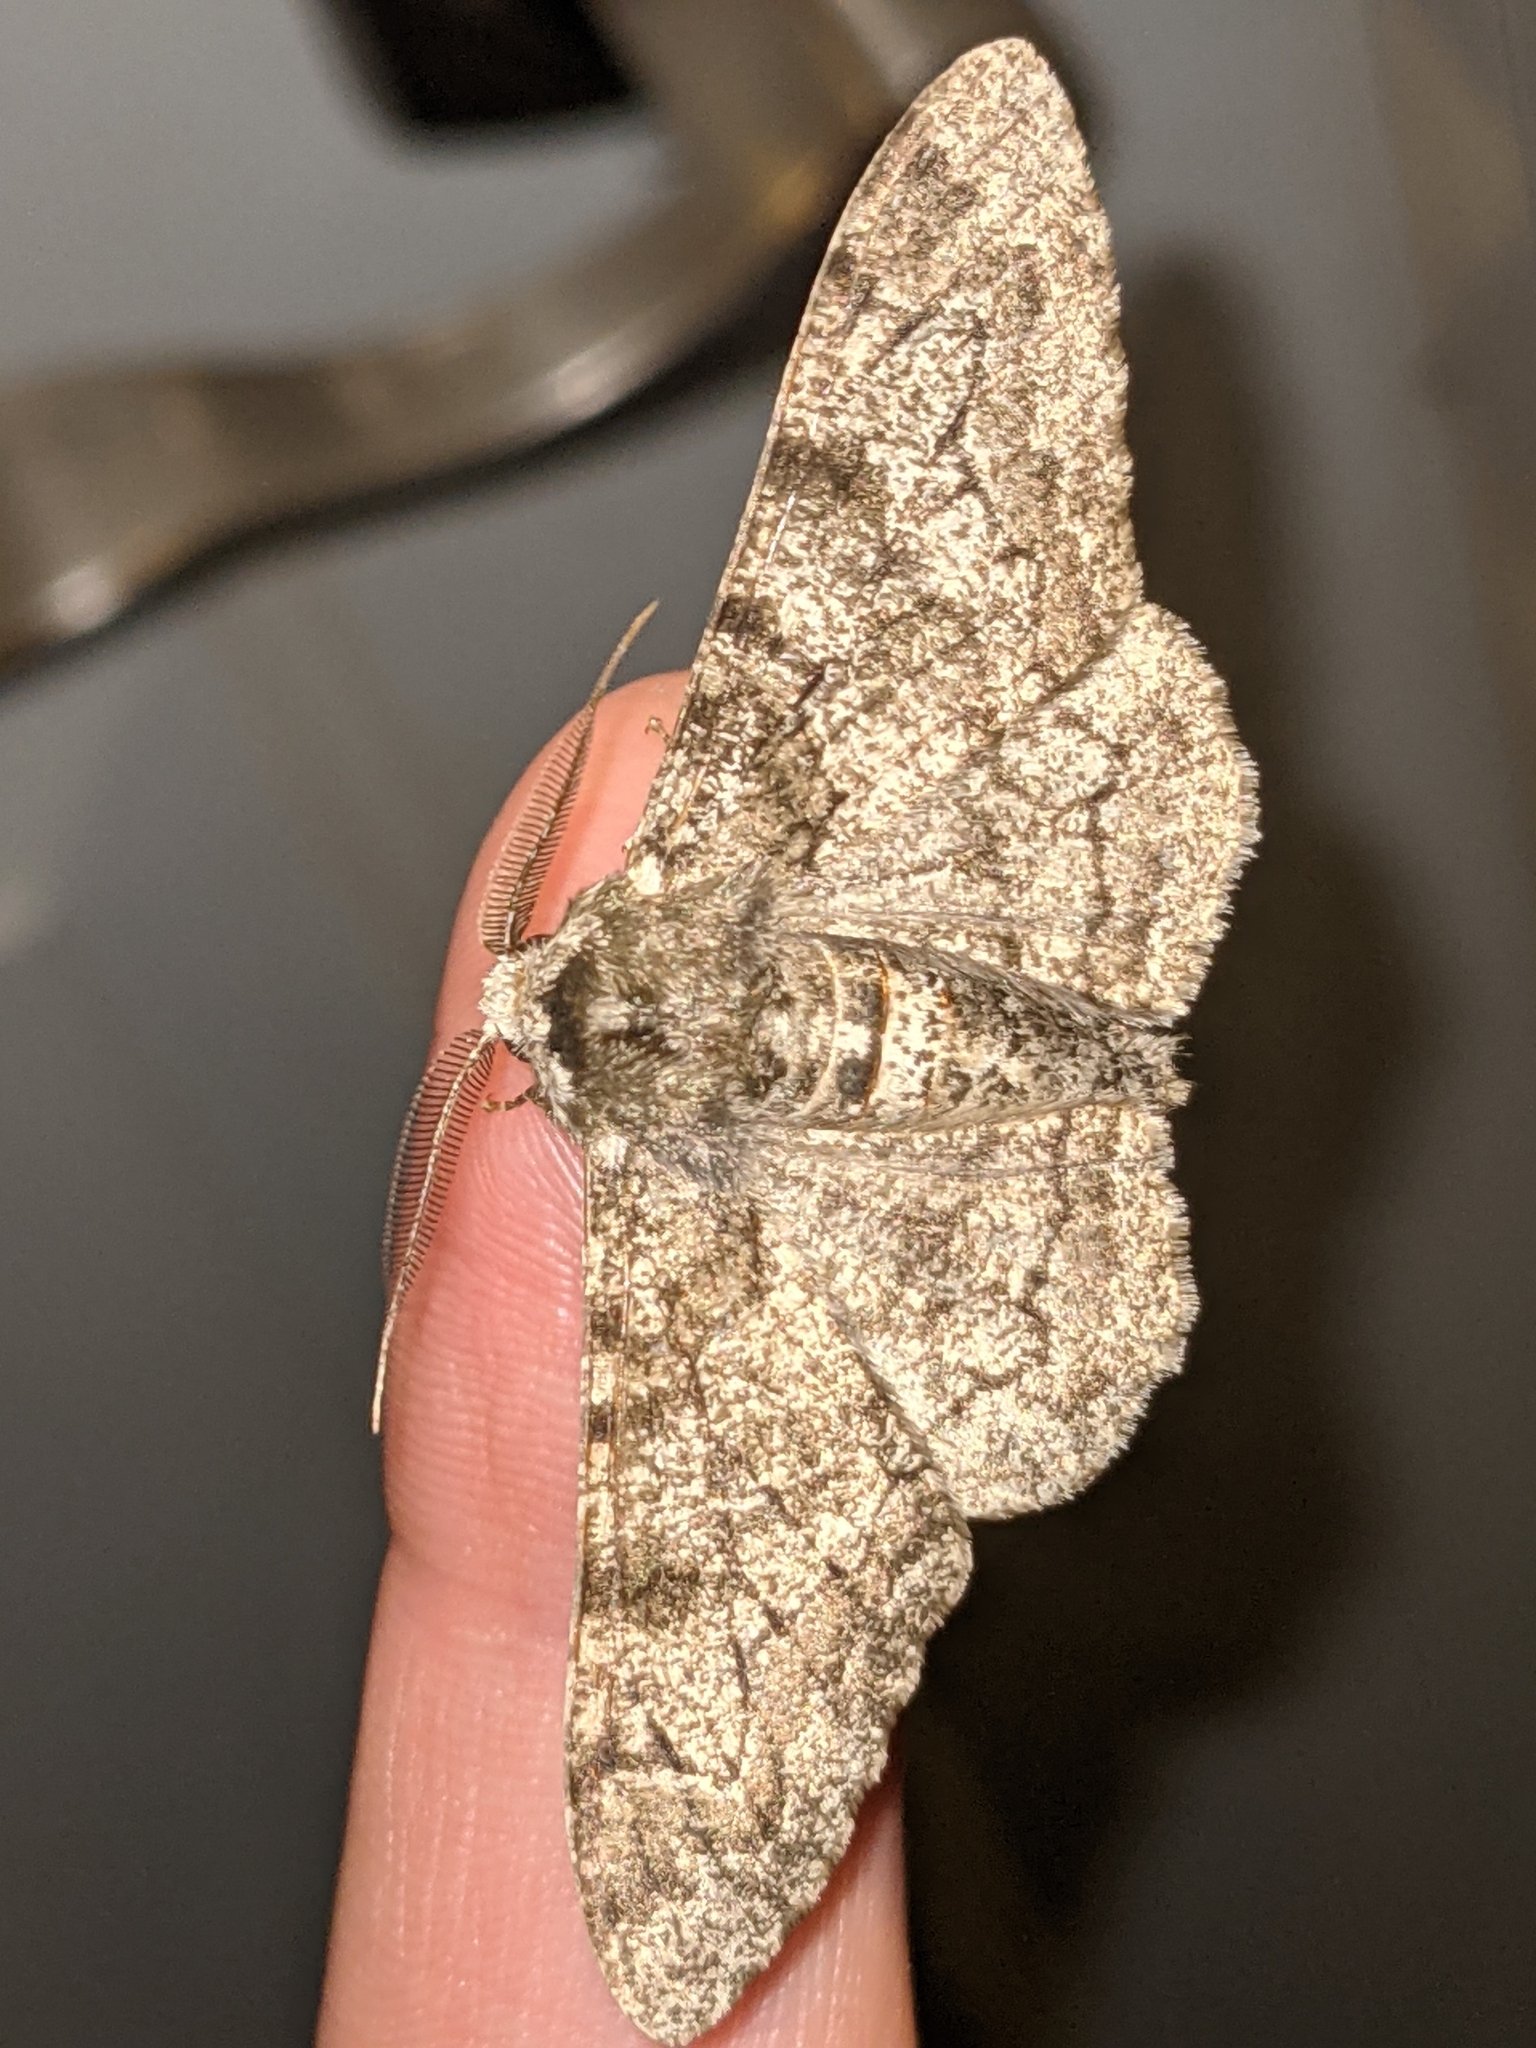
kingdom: Animalia
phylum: Arthropoda
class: Insecta
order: Lepidoptera
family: Geometridae
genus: Biston
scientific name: Biston betularia
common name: Peppered moth
